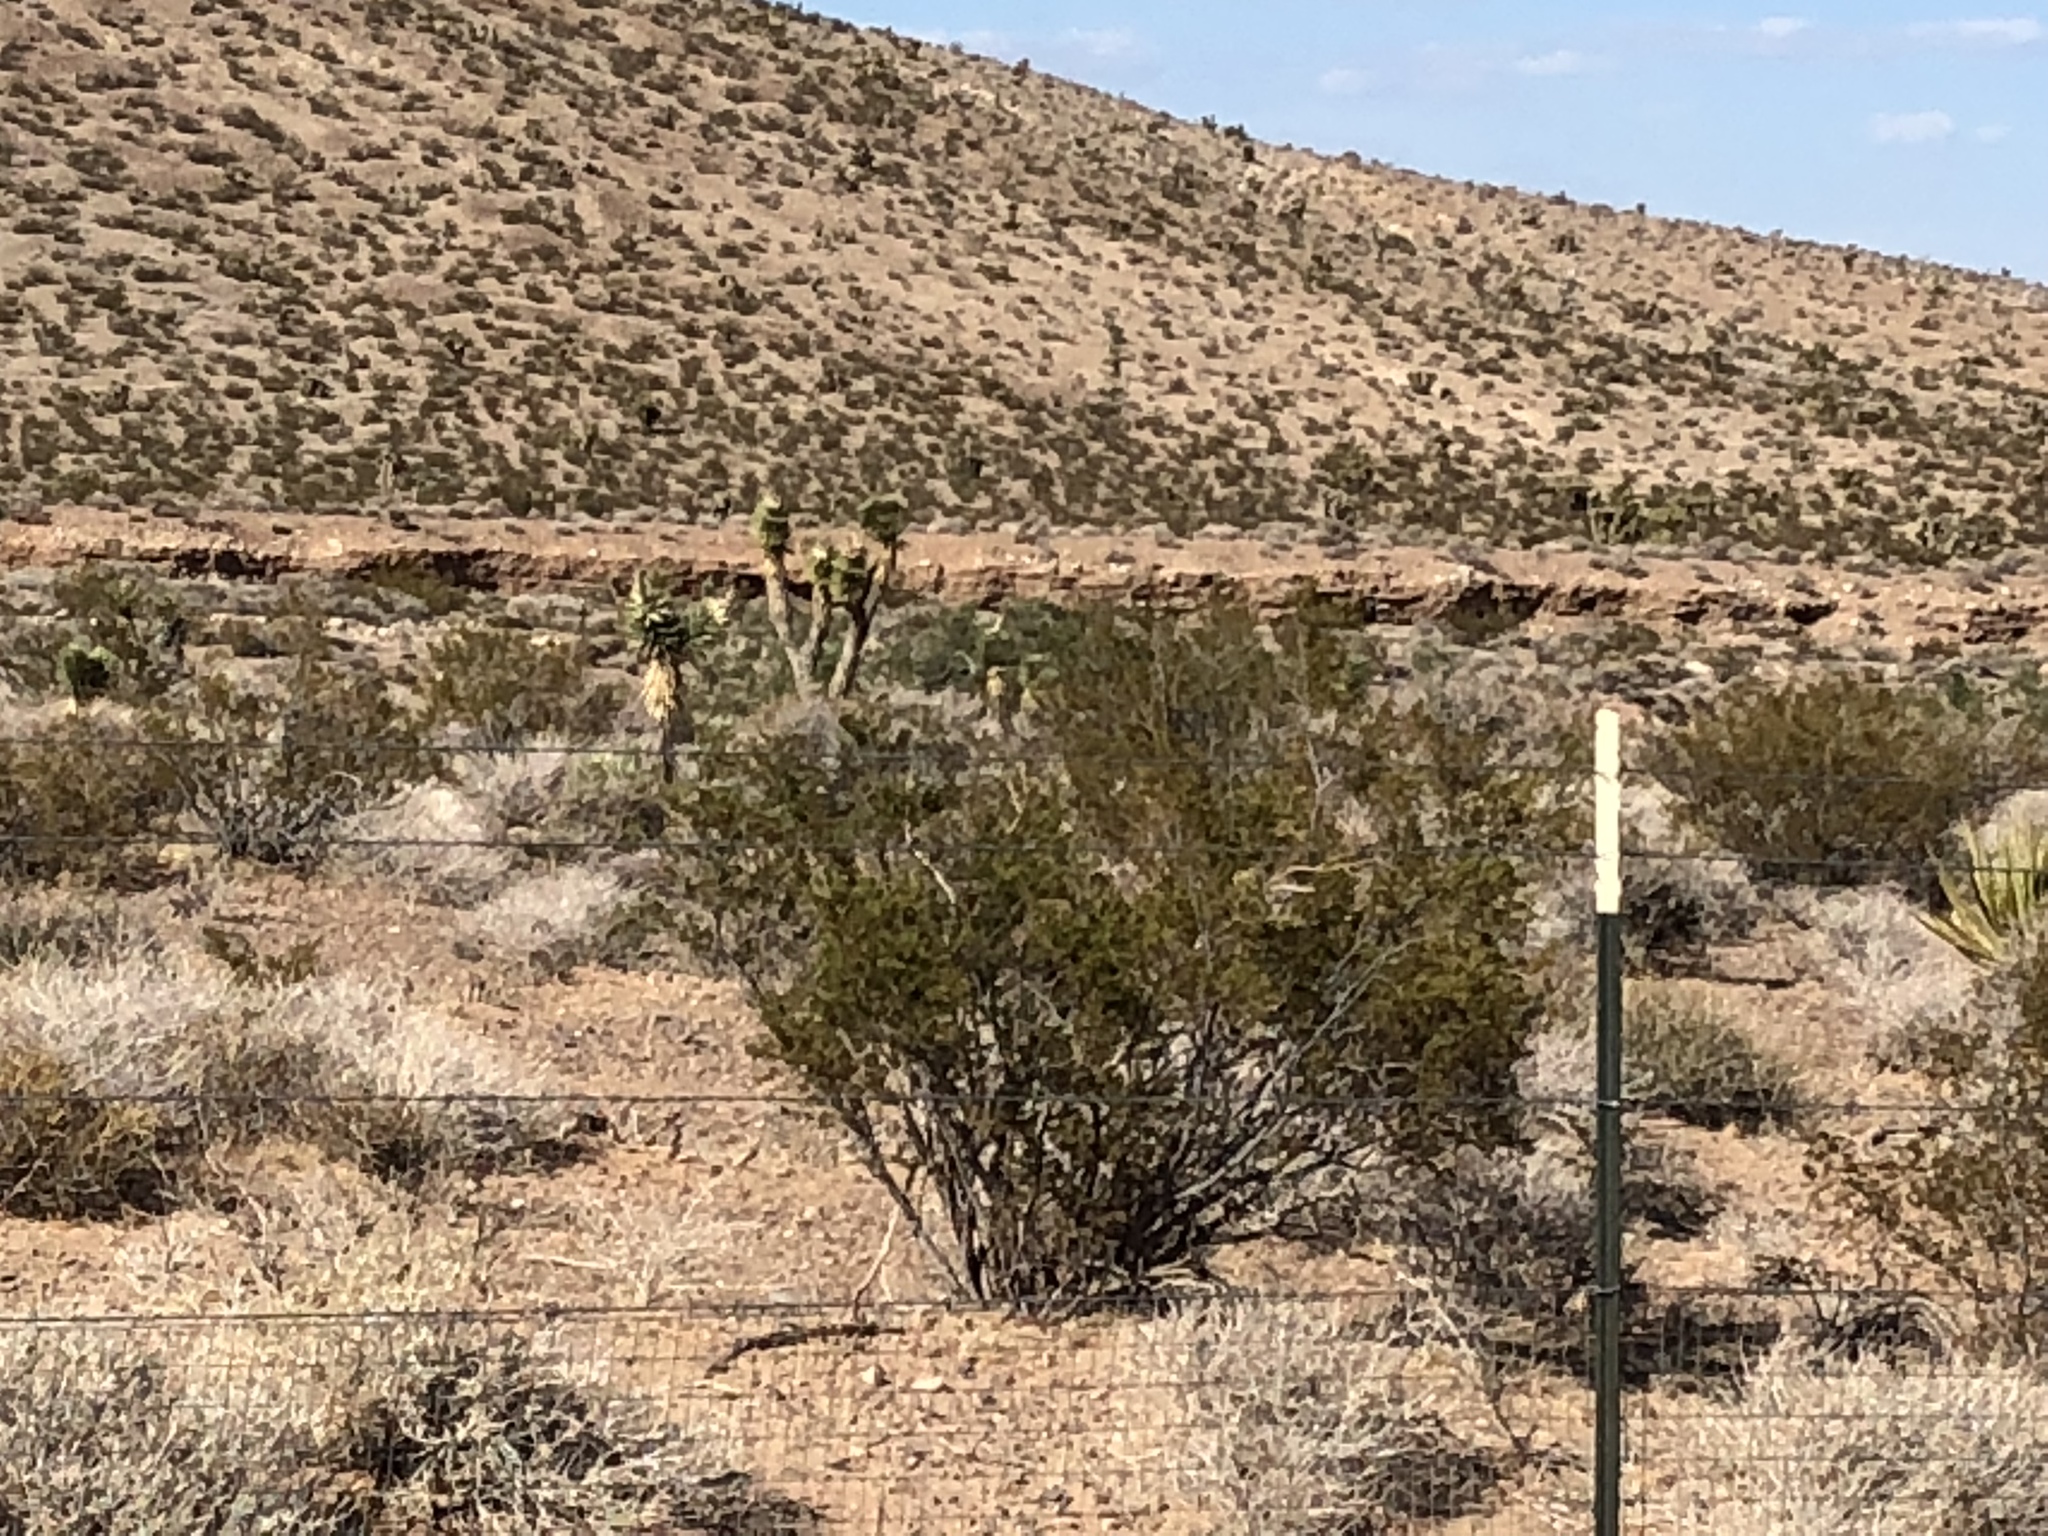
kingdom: Plantae
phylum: Tracheophyta
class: Magnoliopsida
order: Zygophyllales
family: Zygophyllaceae
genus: Larrea
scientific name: Larrea tridentata
